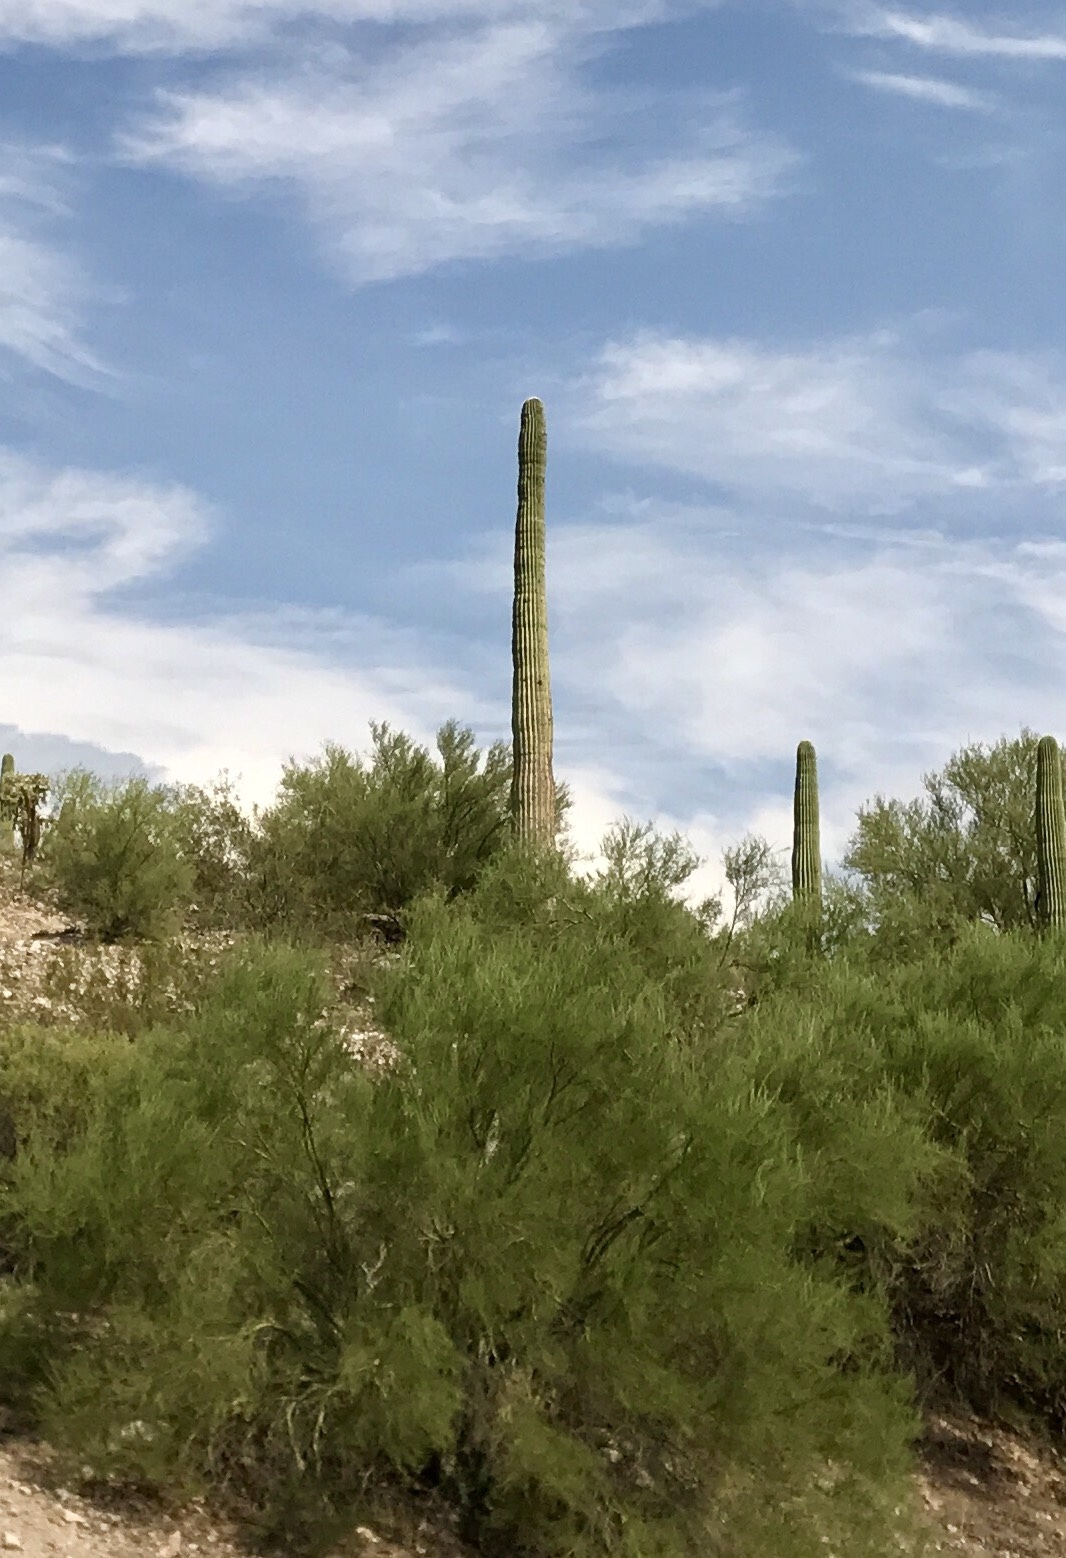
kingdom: Plantae
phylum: Tracheophyta
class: Magnoliopsida
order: Caryophyllales
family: Cactaceae
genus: Carnegiea
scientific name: Carnegiea gigantea
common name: Saguaro
